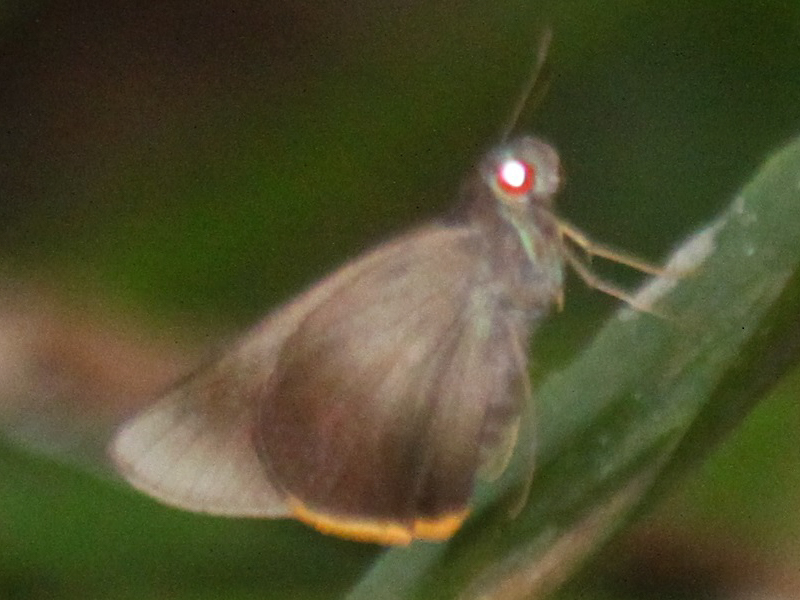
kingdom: Animalia
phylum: Arthropoda
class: Insecta
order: Lepidoptera
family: Hesperiidae
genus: Matapa
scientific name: Matapa cresta
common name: Fringed redeye
